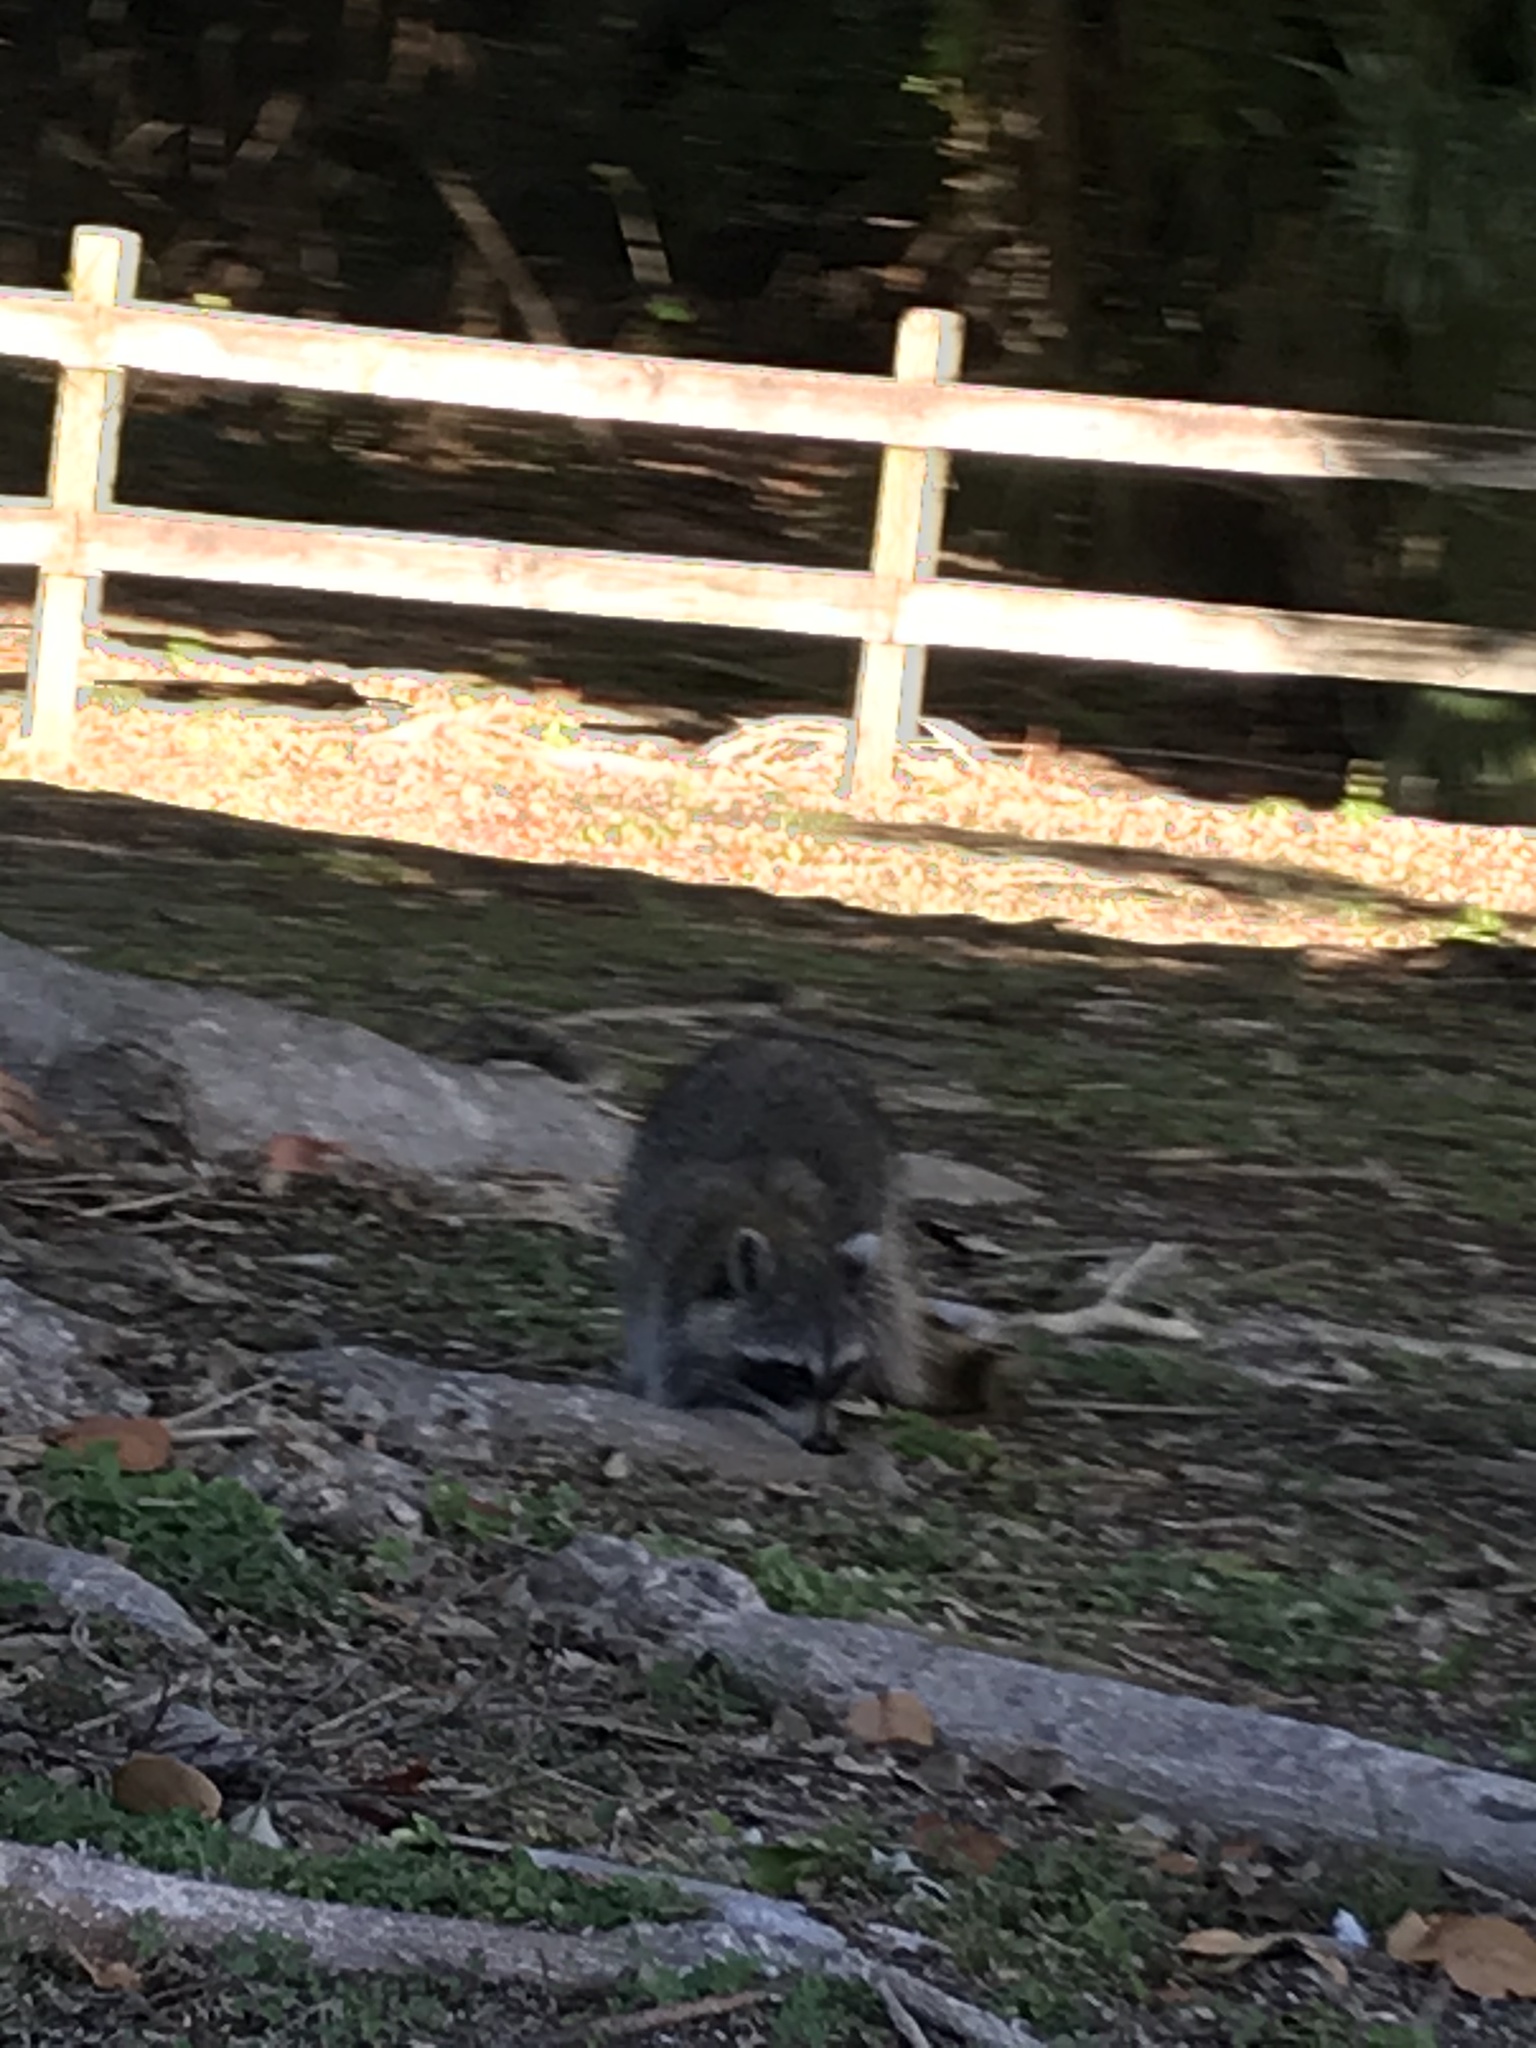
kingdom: Animalia
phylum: Chordata
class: Mammalia
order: Carnivora
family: Procyonidae
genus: Procyon
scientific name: Procyon lotor
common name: Raccoon
